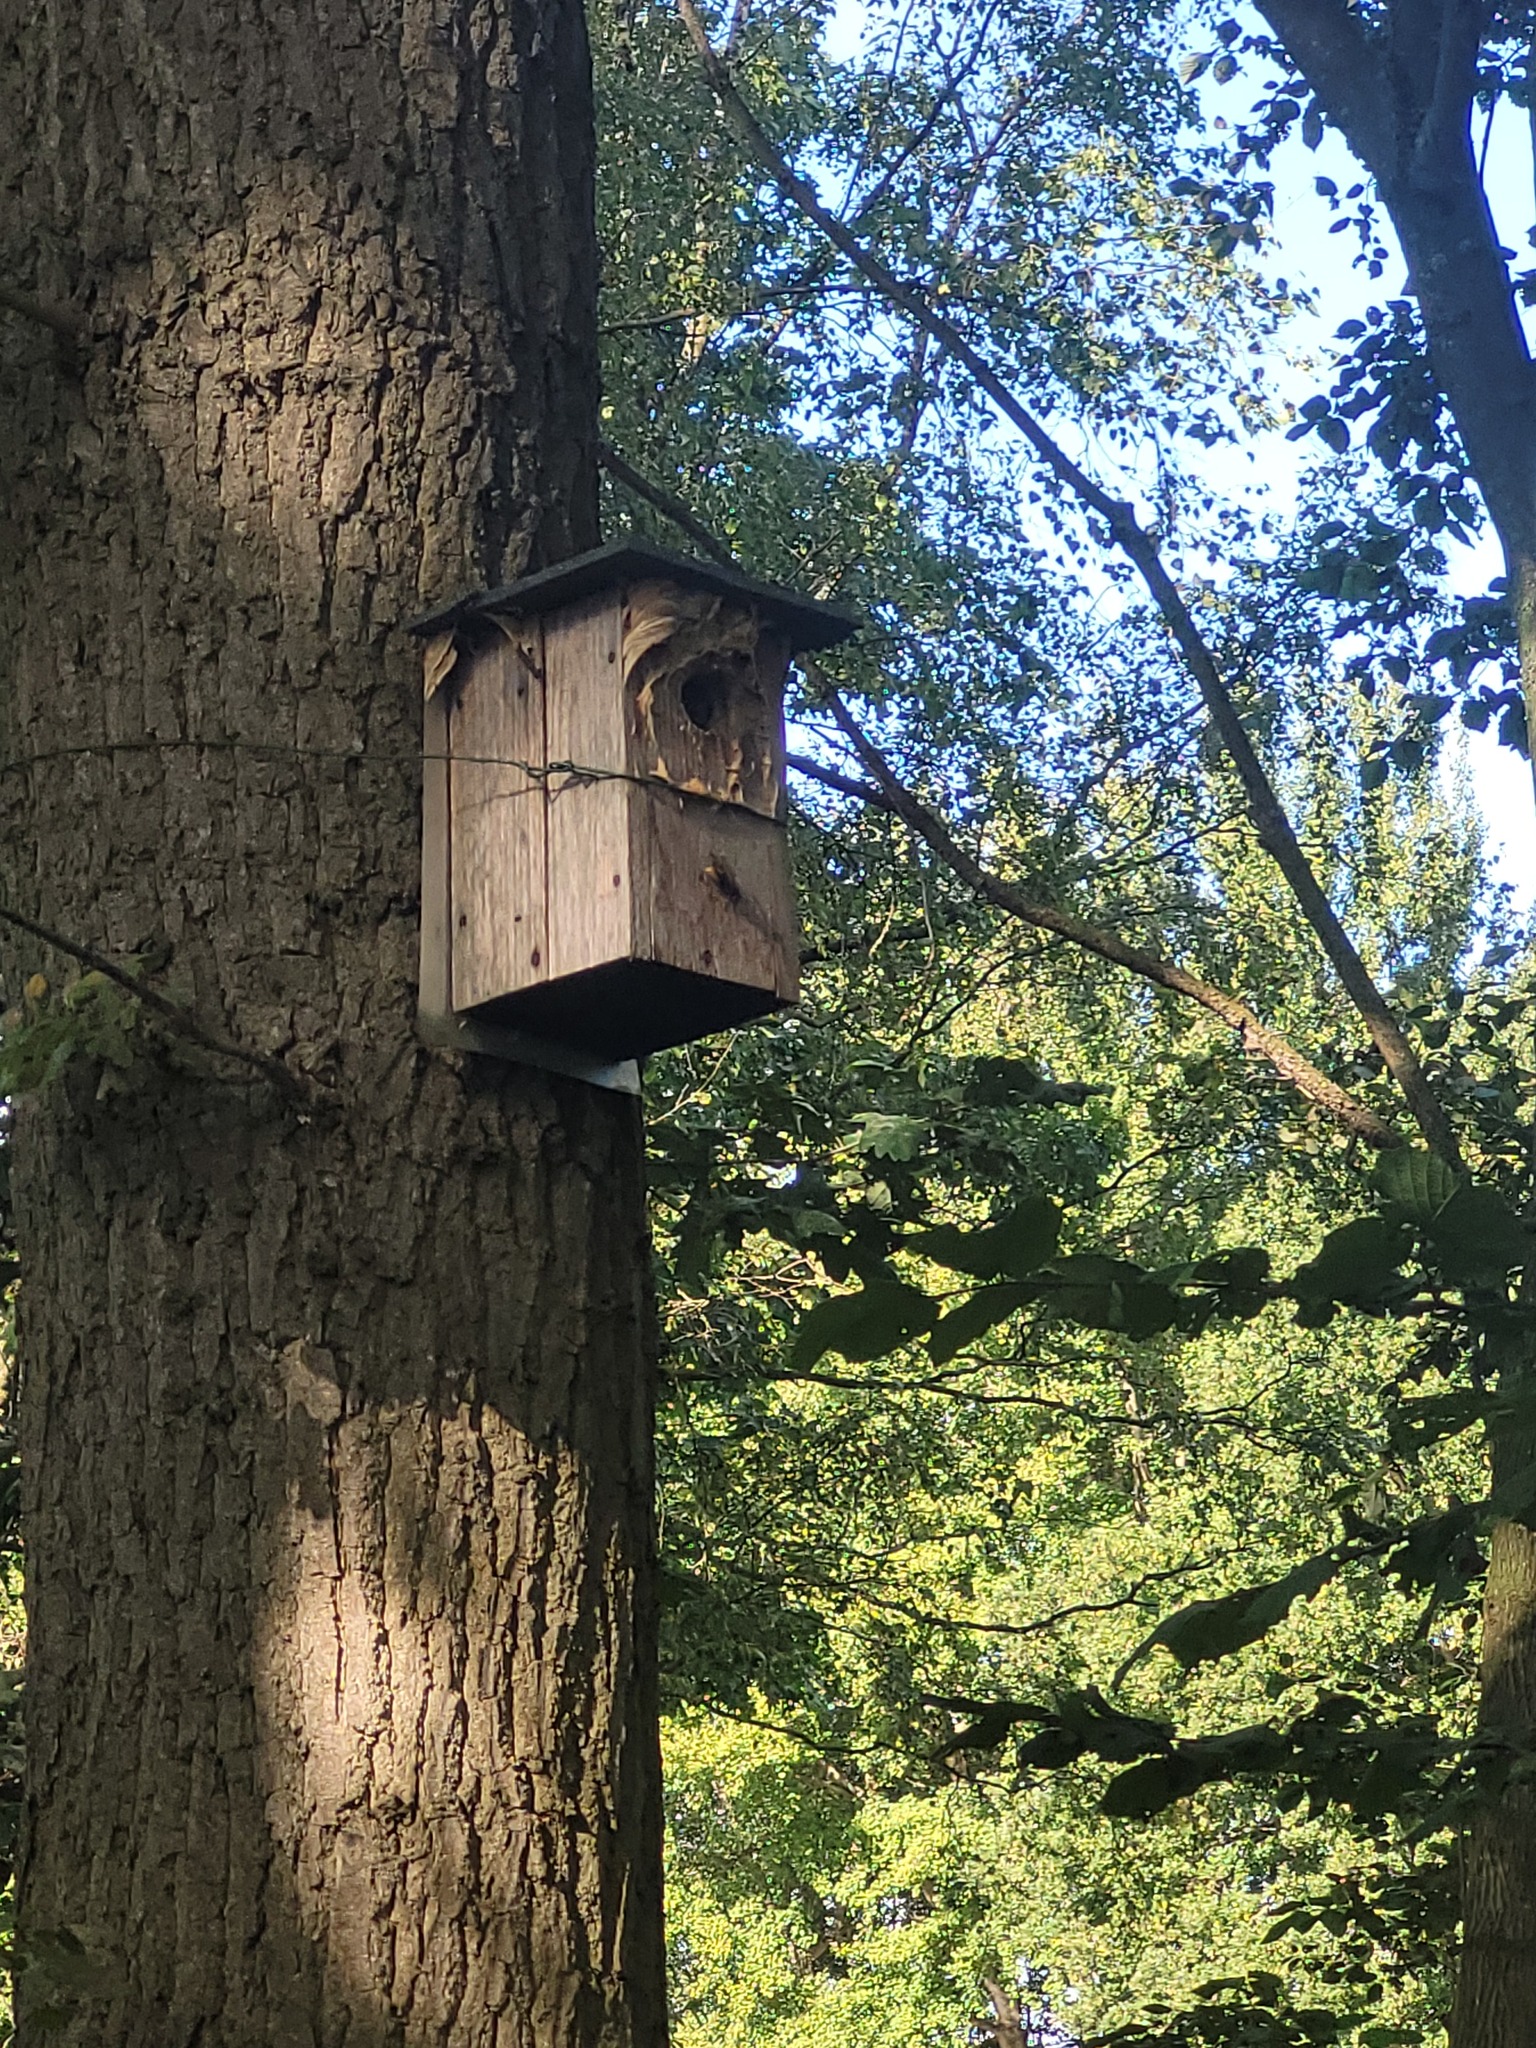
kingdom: Animalia
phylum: Arthropoda
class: Insecta
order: Hymenoptera
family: Vespidae
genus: Vespa
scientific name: Vespa crabro
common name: Hornet
